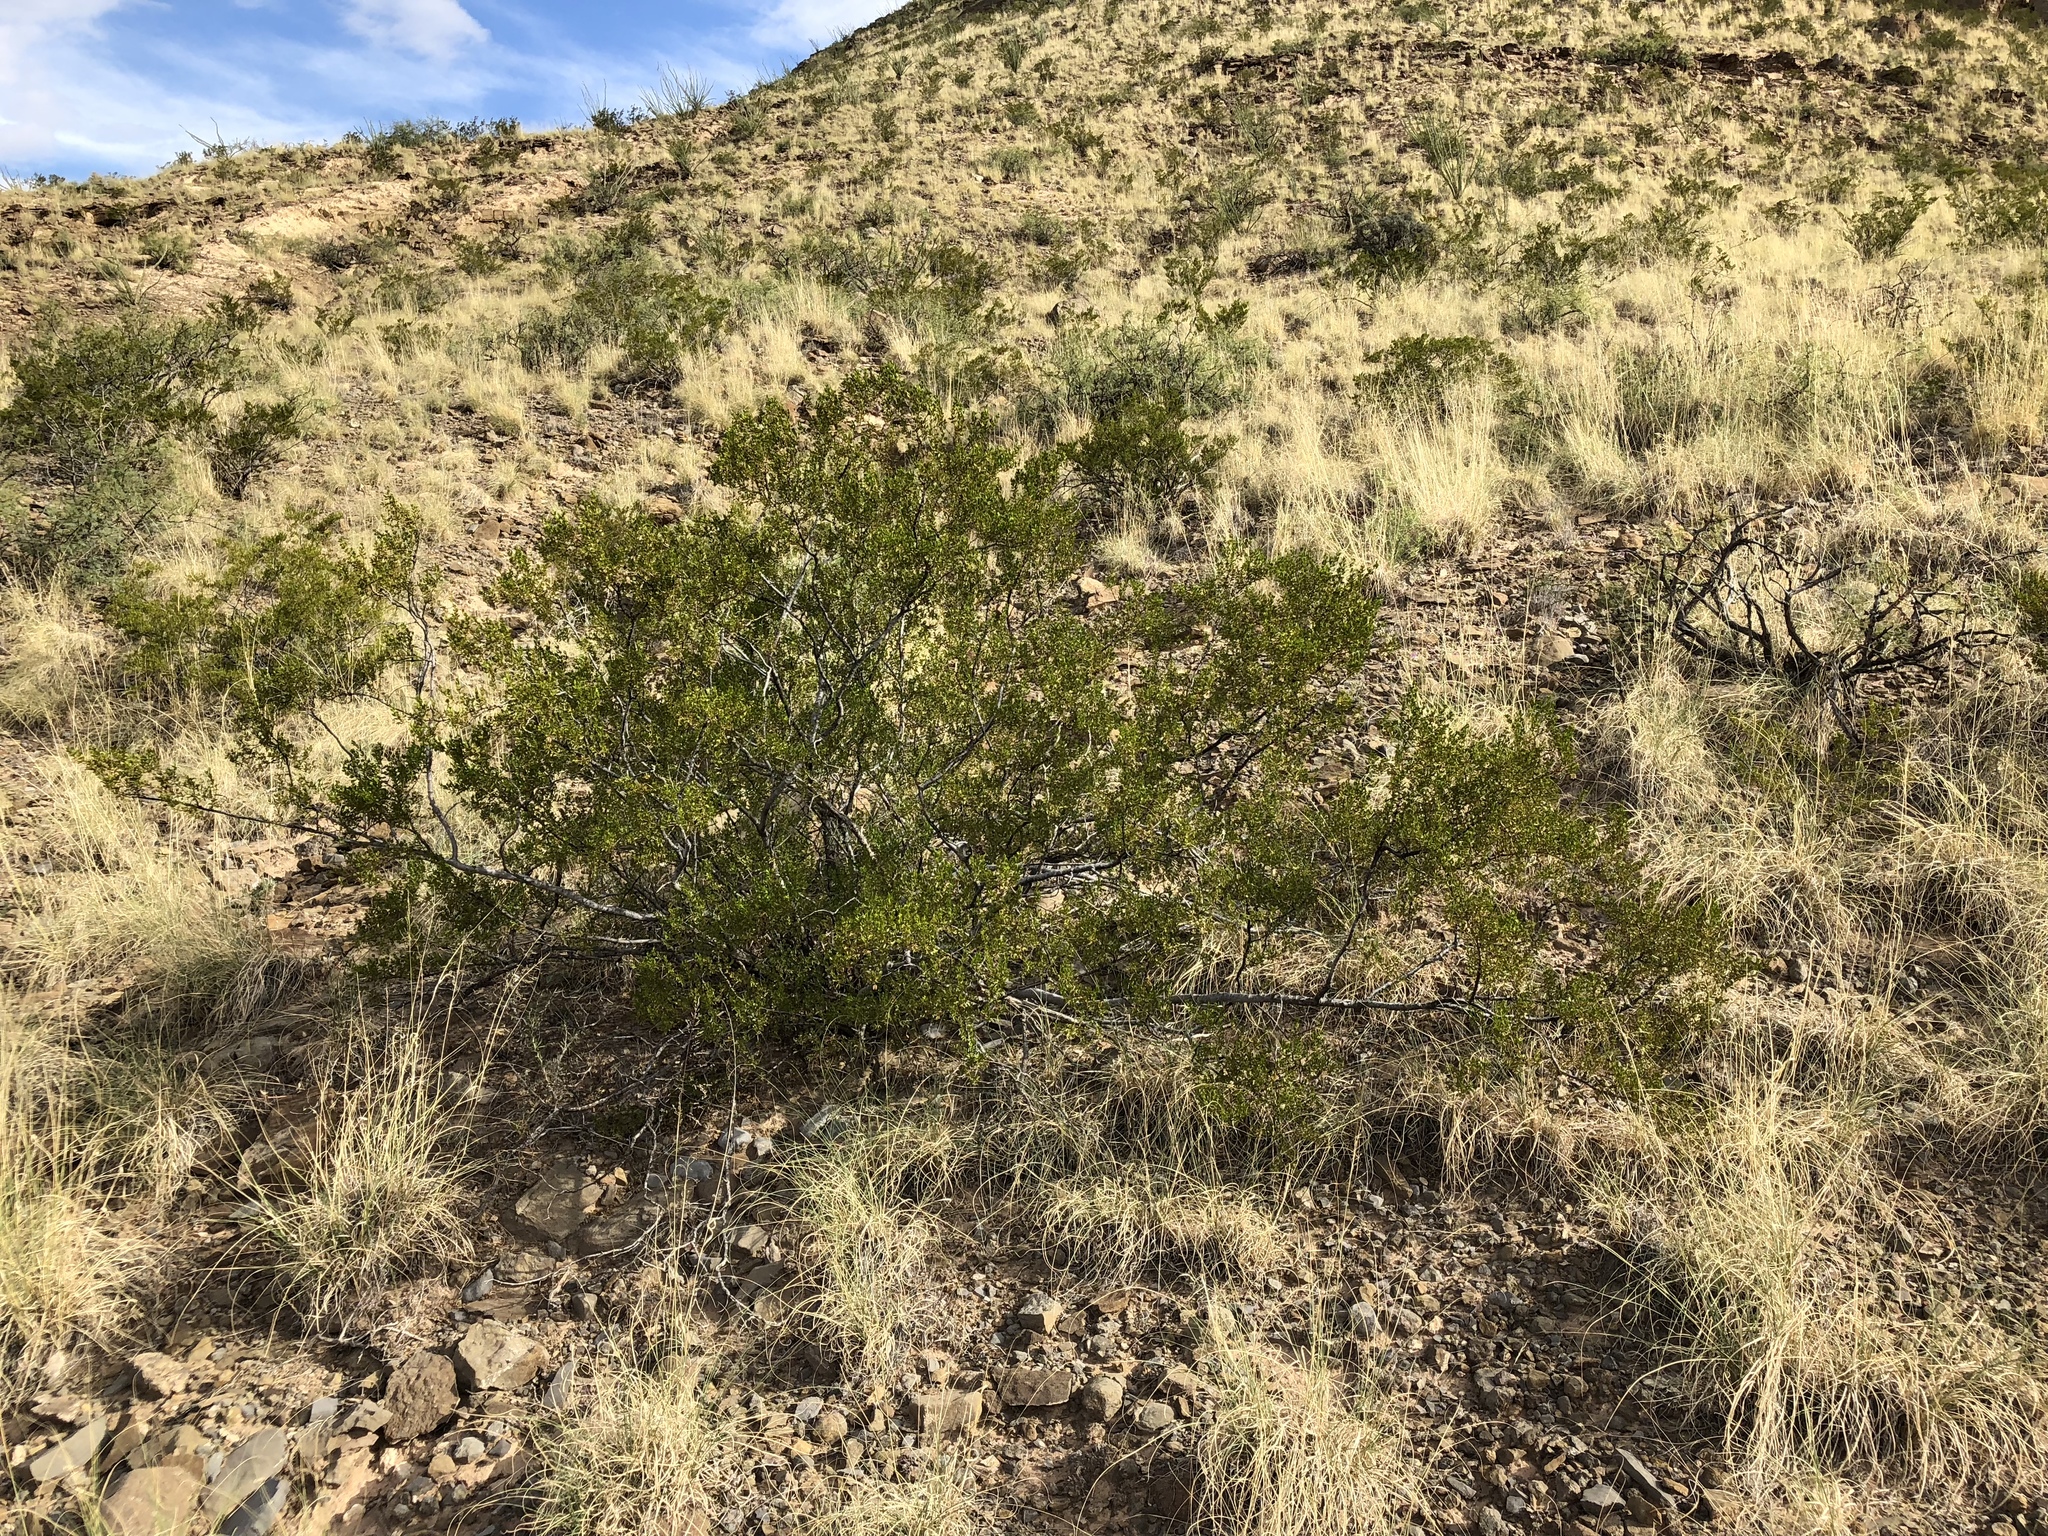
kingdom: Plantae
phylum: Tracheophyta
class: Magnoliopsida
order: Zygophyllales
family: Zygophyllaceae
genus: Larrea
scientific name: Larrea tridentata
